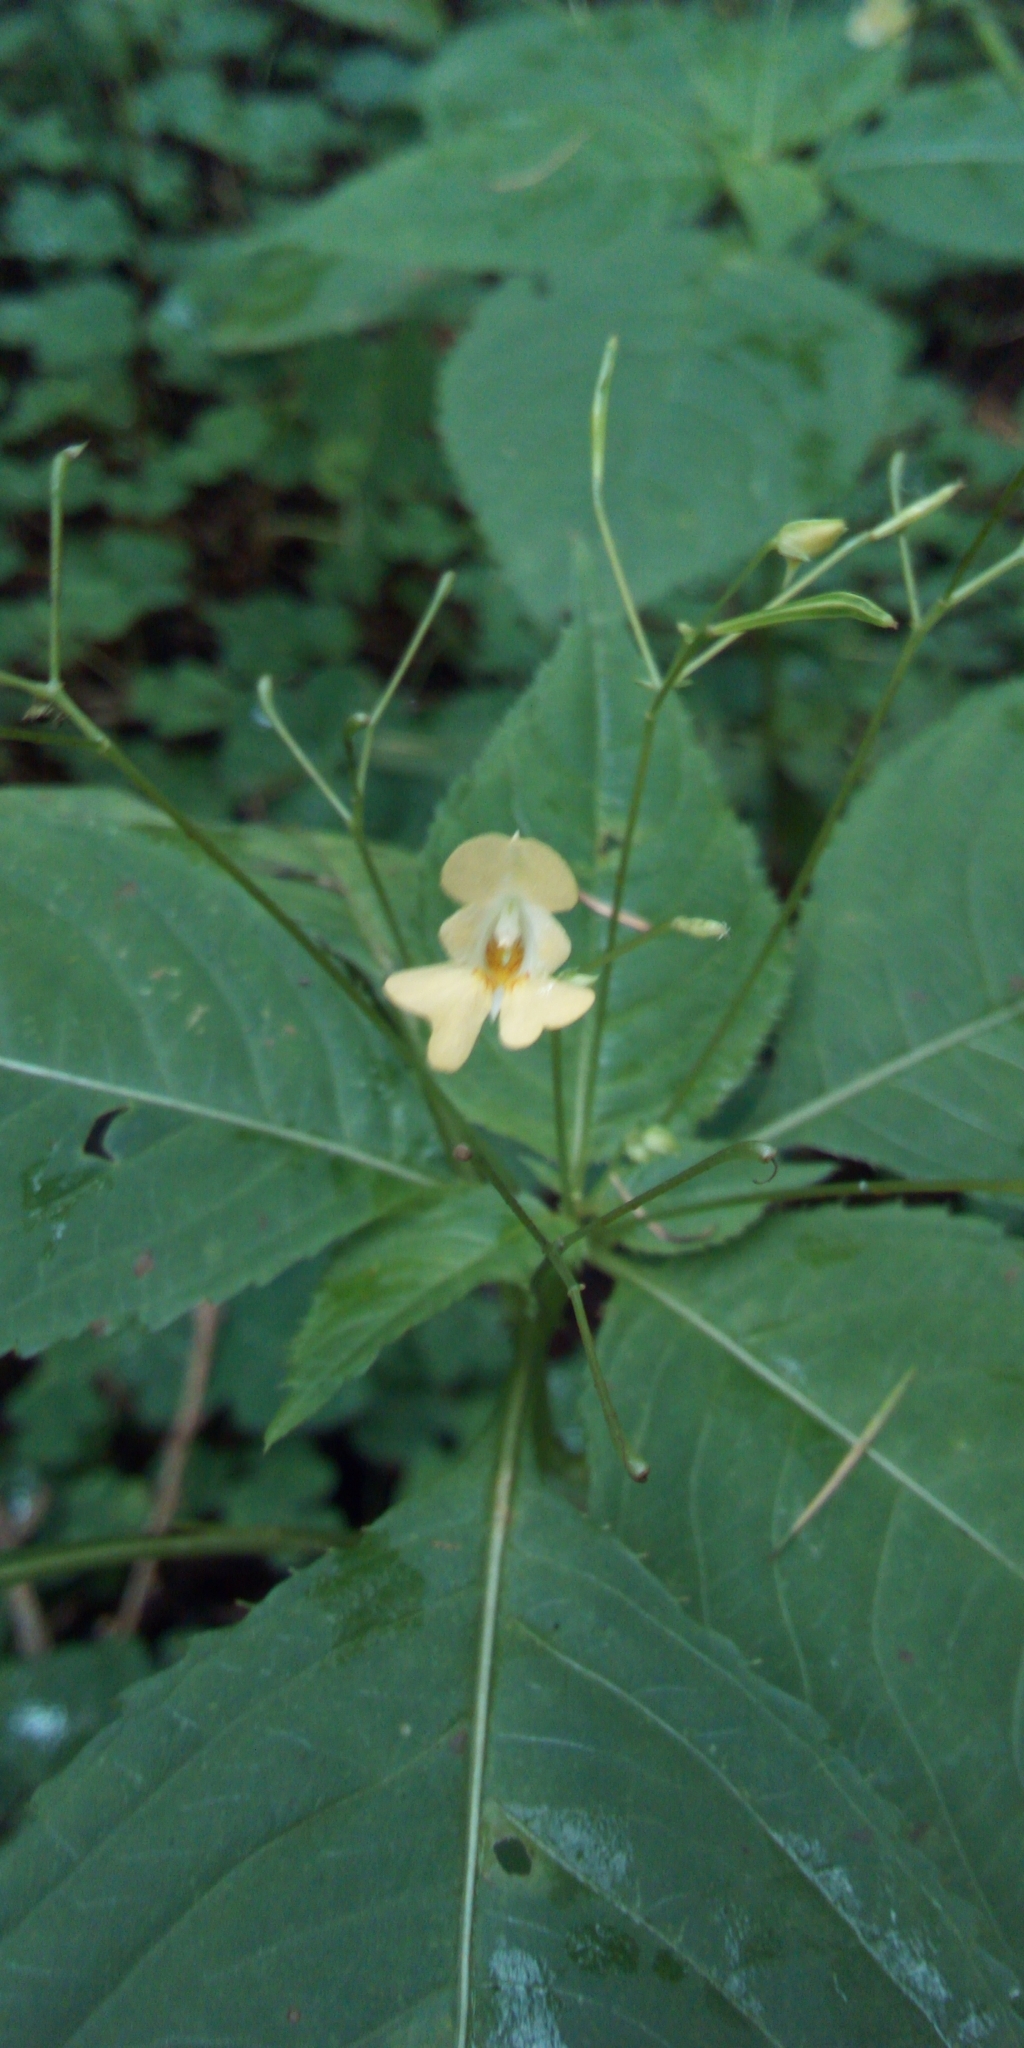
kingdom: Plantae
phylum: Tracheophyta
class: Magnoliopsida
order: Ericales
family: Balsaminaceae
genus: Impatiens
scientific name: Impatiens parviflora
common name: Small balsam
